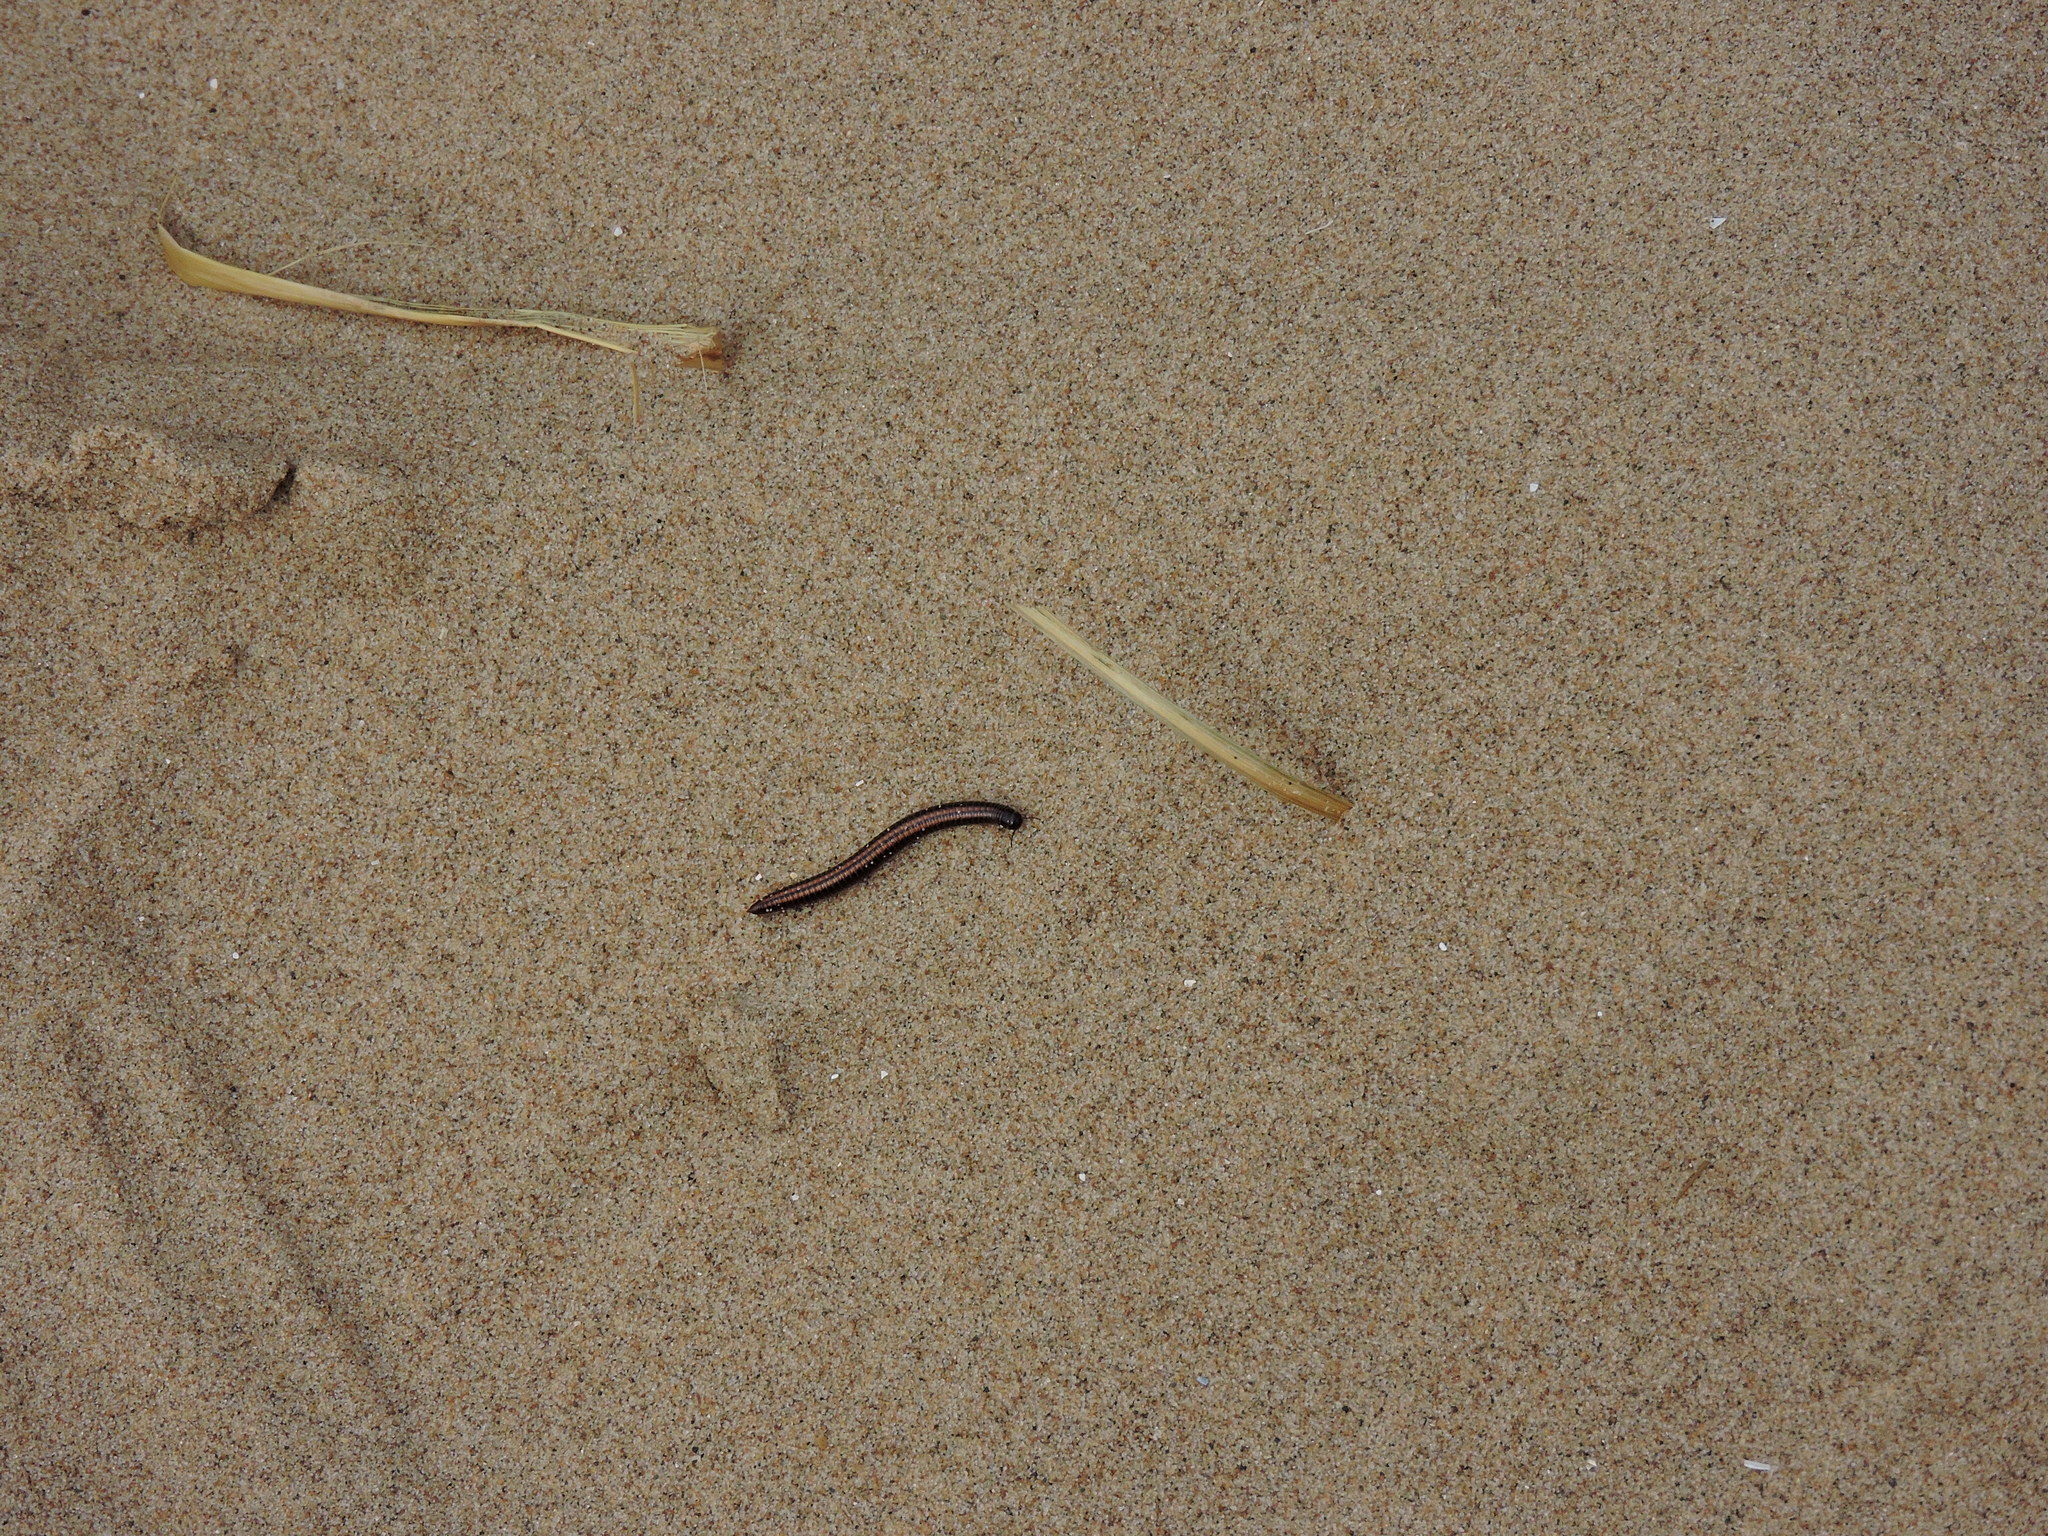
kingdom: Animalia
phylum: Arthropoda
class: Diplopoda
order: Julida
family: Julidae
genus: Ommatoiulus
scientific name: Ommatoiulus sabulosus
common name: Striped millipede
